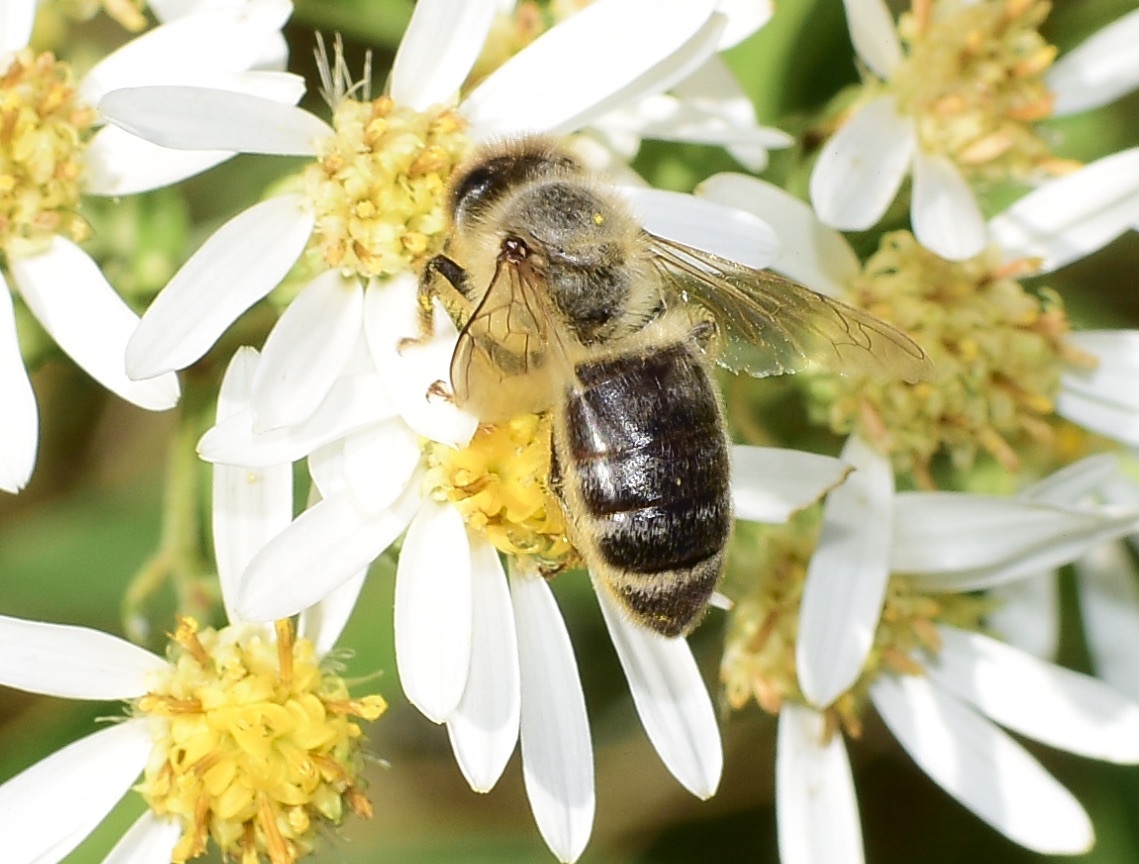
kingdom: Animalia
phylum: Arthropoda
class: Insecta
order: Hymenoptera
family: Apidae
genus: Apis
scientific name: Apis mellifera
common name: Honey bee
